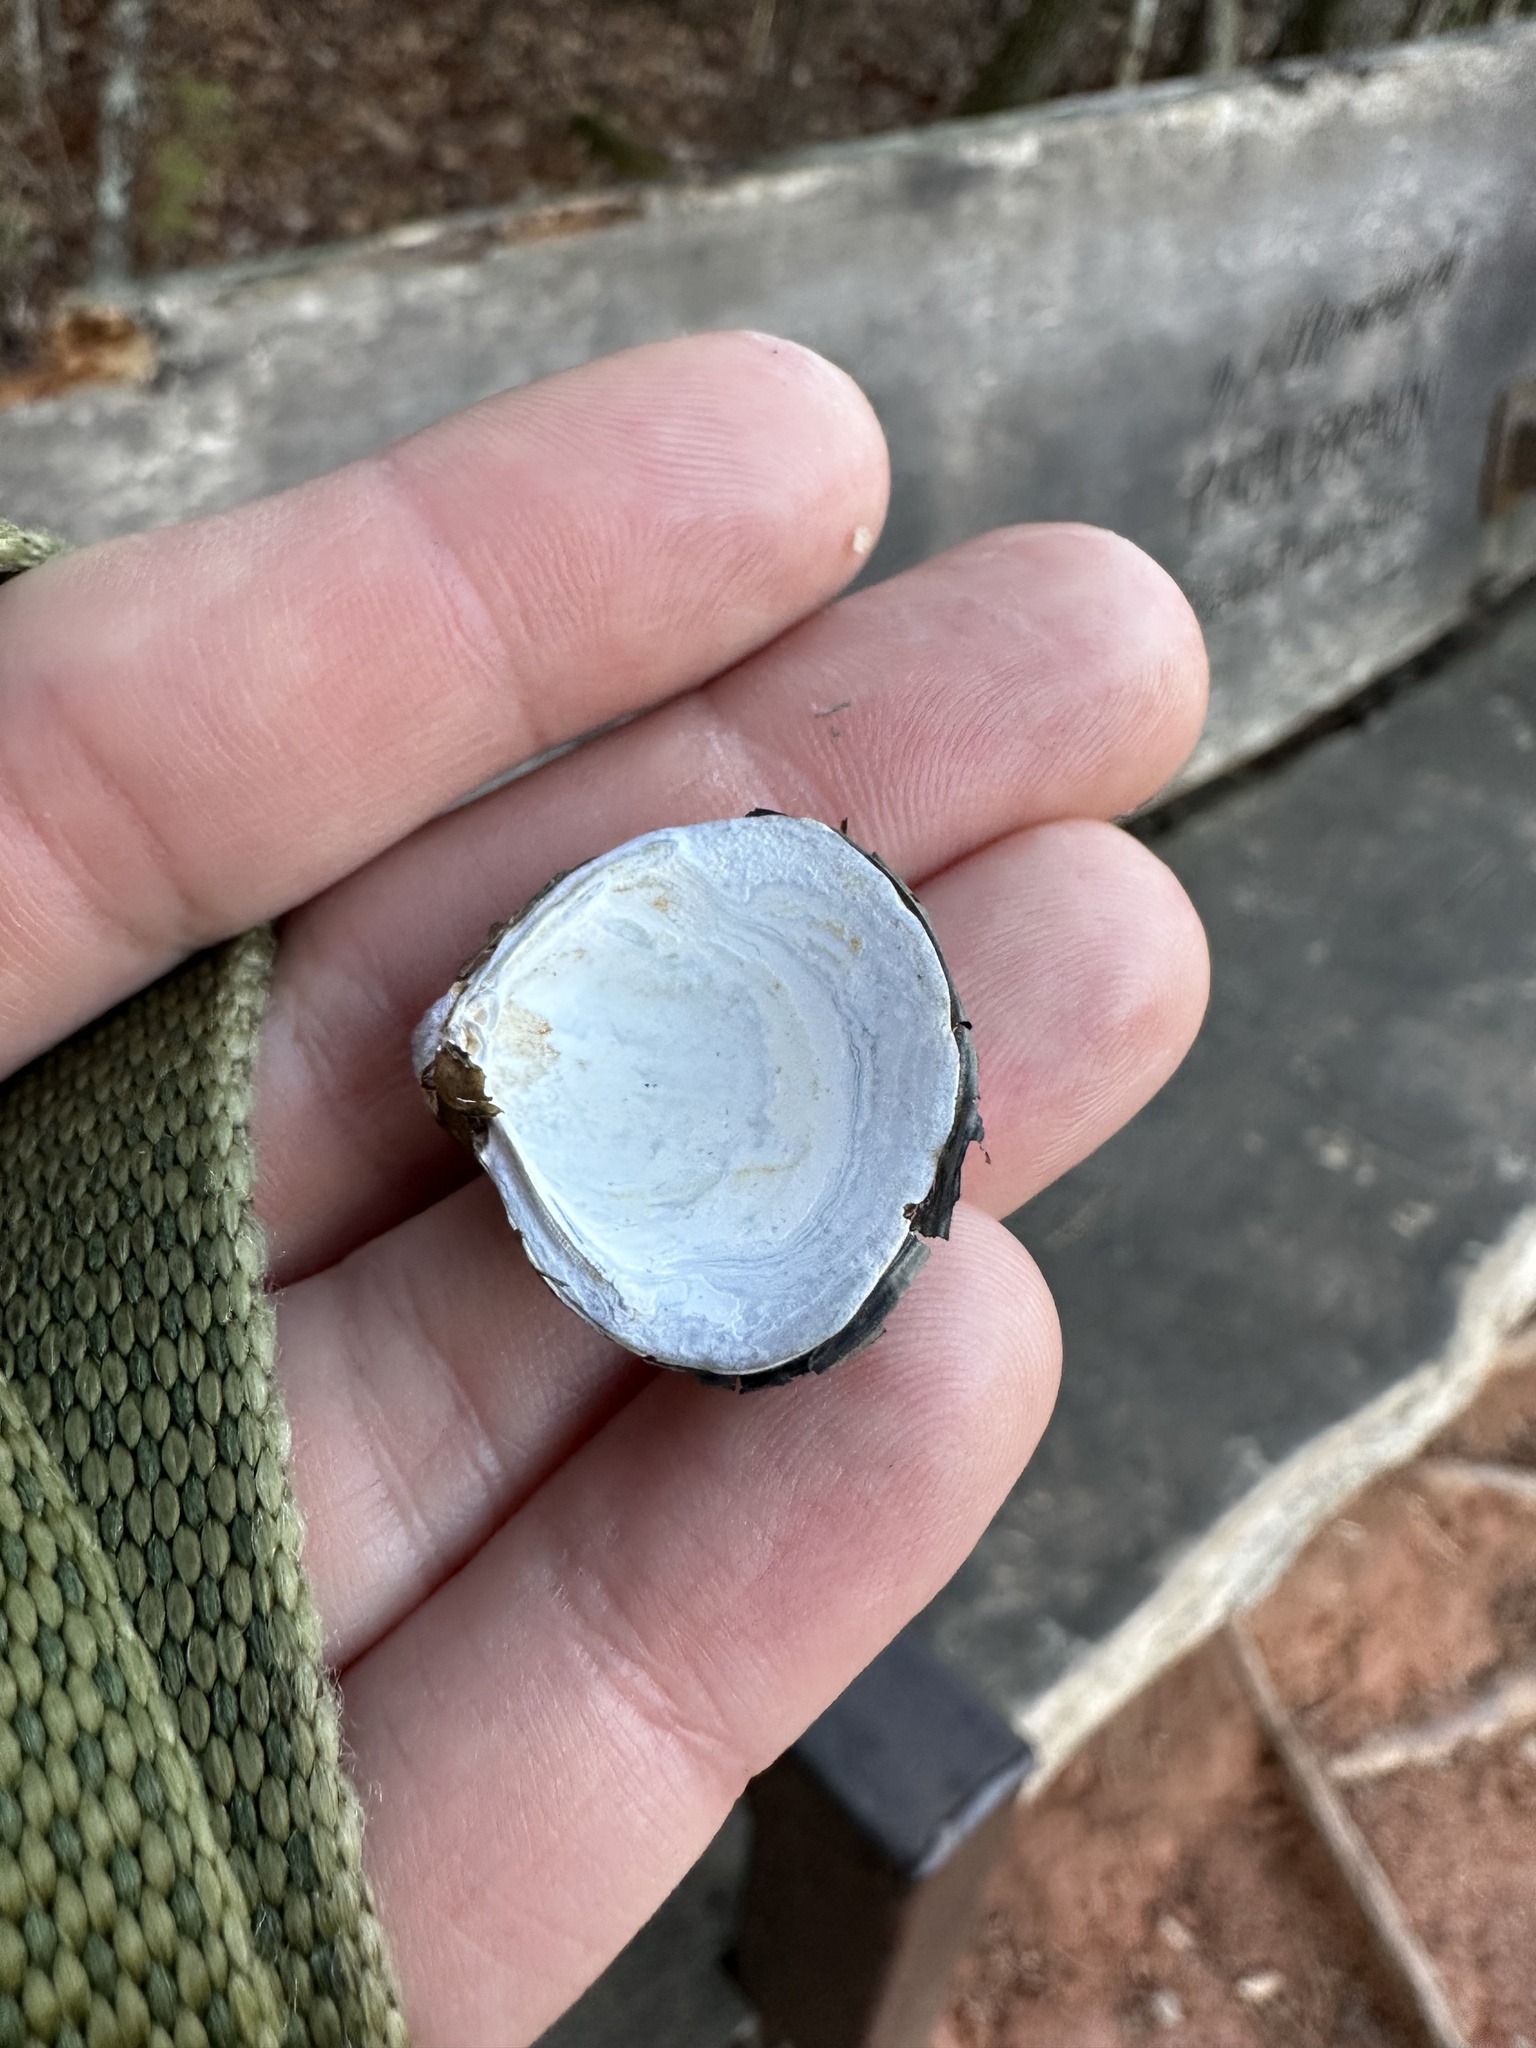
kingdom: Animalia
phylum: Mollusca
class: Bivalvia
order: Venerida
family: Cyrenidae
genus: Corbicula
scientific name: Corbicula fluminea
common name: Asian clam
